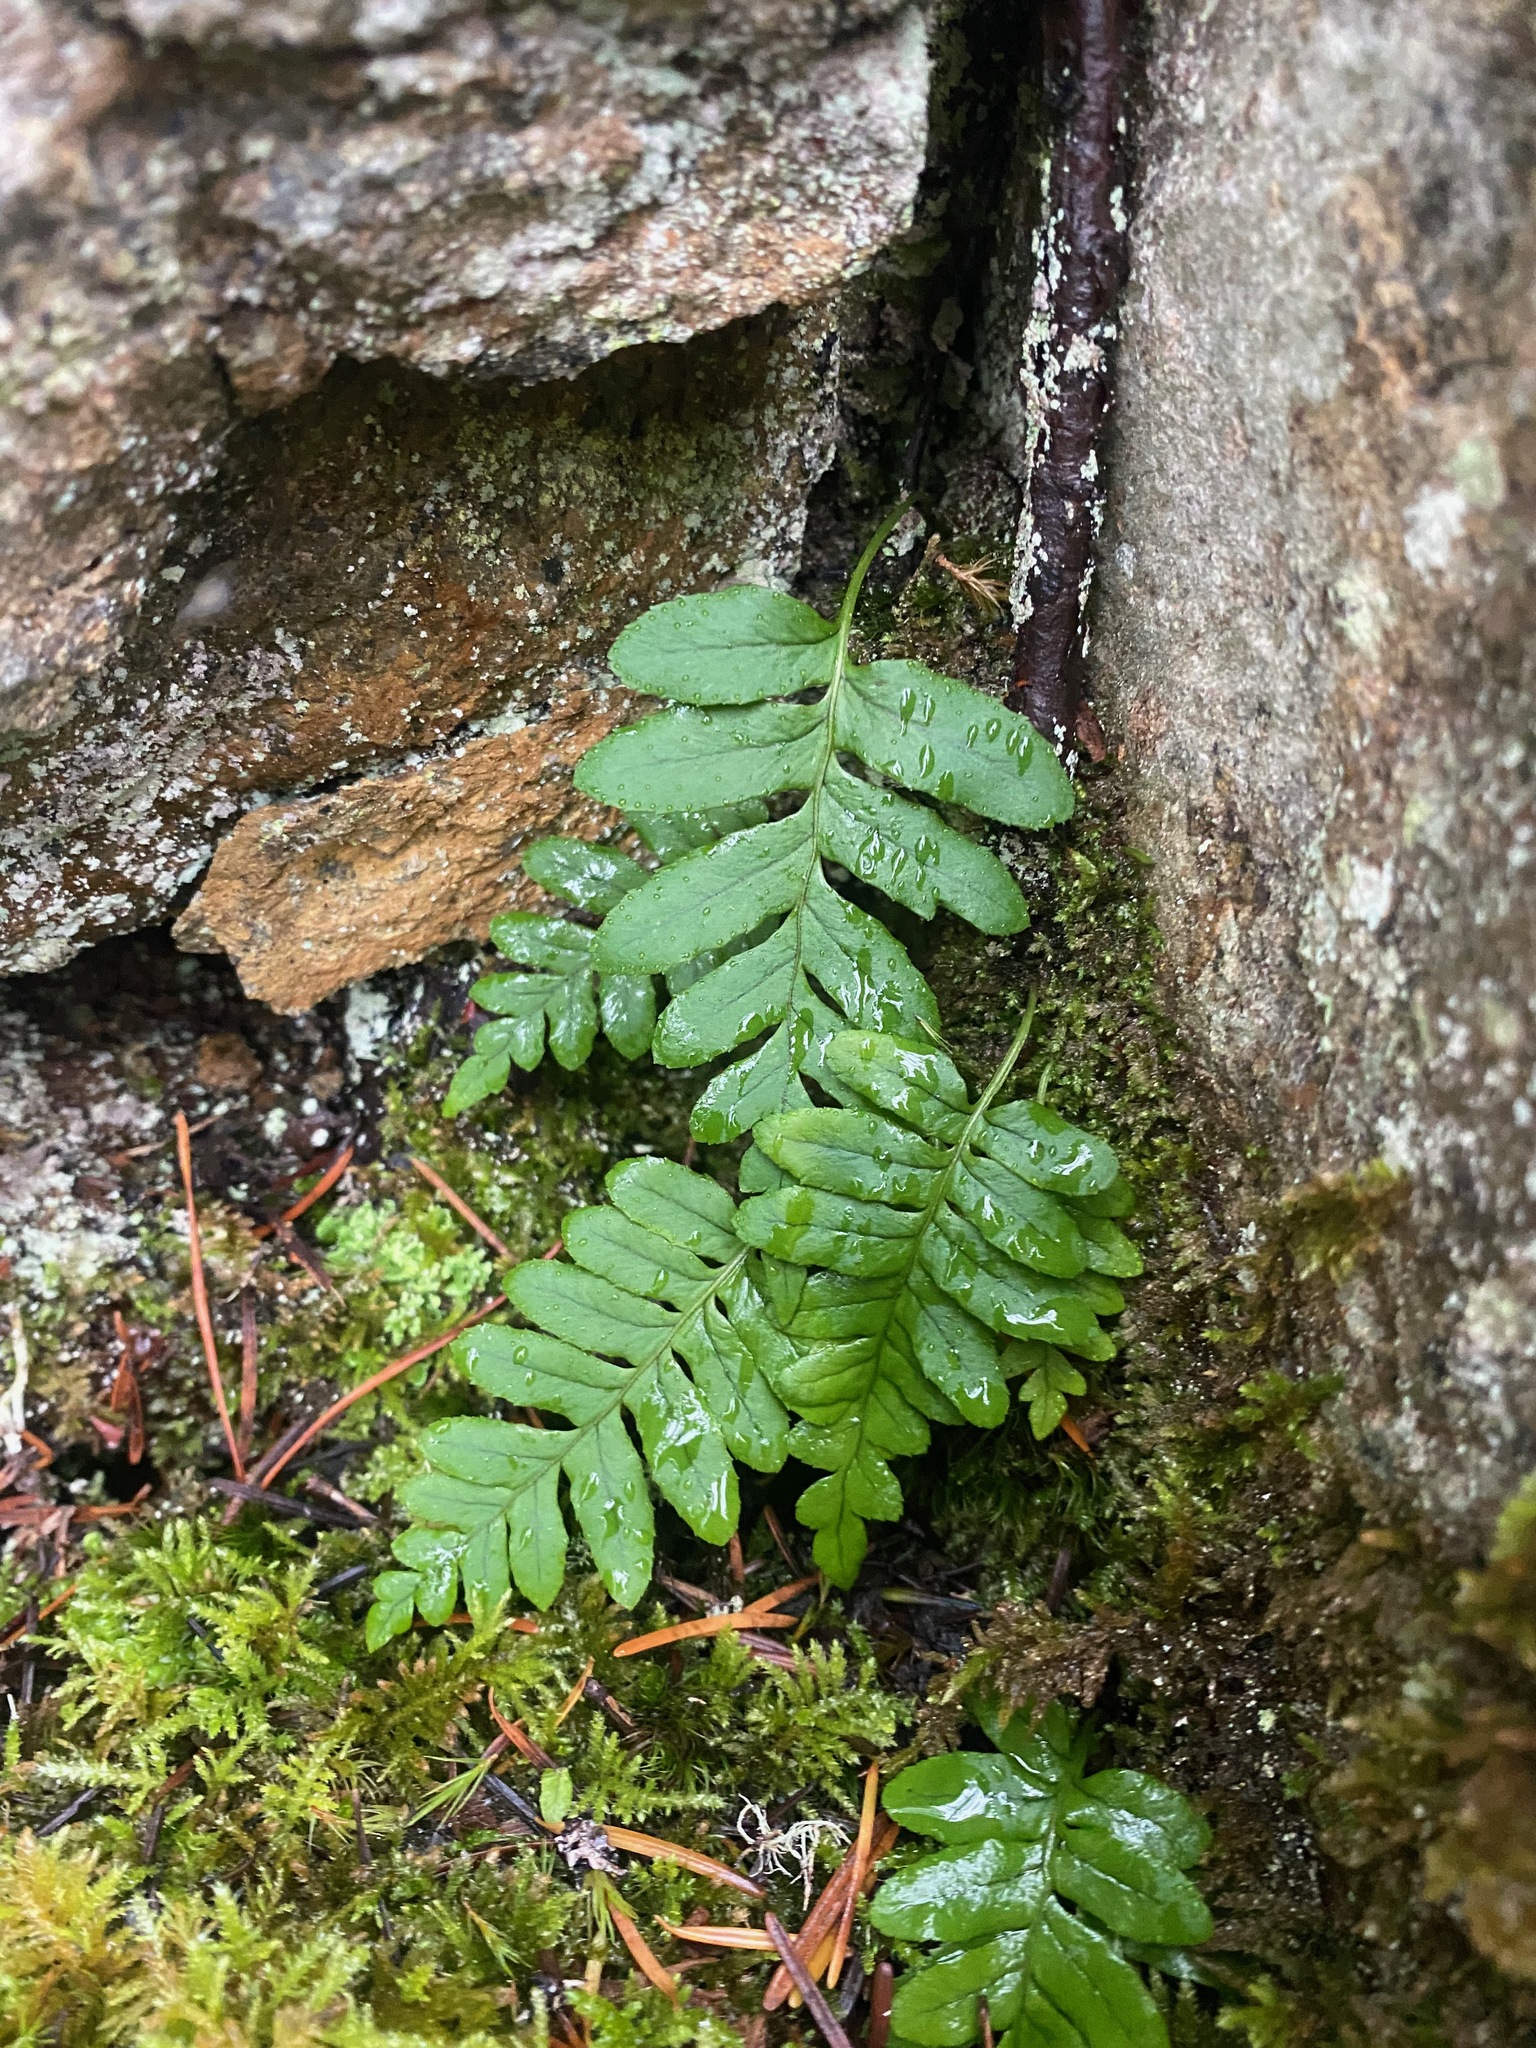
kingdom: Plantae
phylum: Tracheophyta
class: Polypodiopsida
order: Polypodiales
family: Polypodiaceae
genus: Polypodium
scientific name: Polypodium glycyrrhiza
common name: Licorice fern
